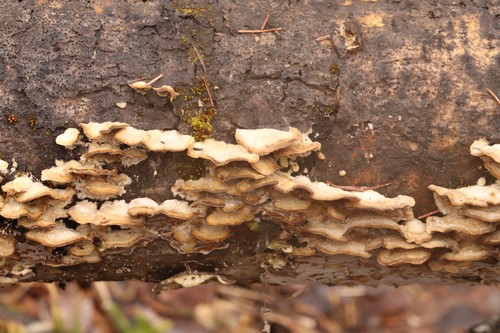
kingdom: Fungi
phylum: Basidiomycota
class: Agaricomycetes
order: Polyporales
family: Phanerochaetaceae
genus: Bjerkandera
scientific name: Bjerkandera adusta
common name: Smoky bracket
